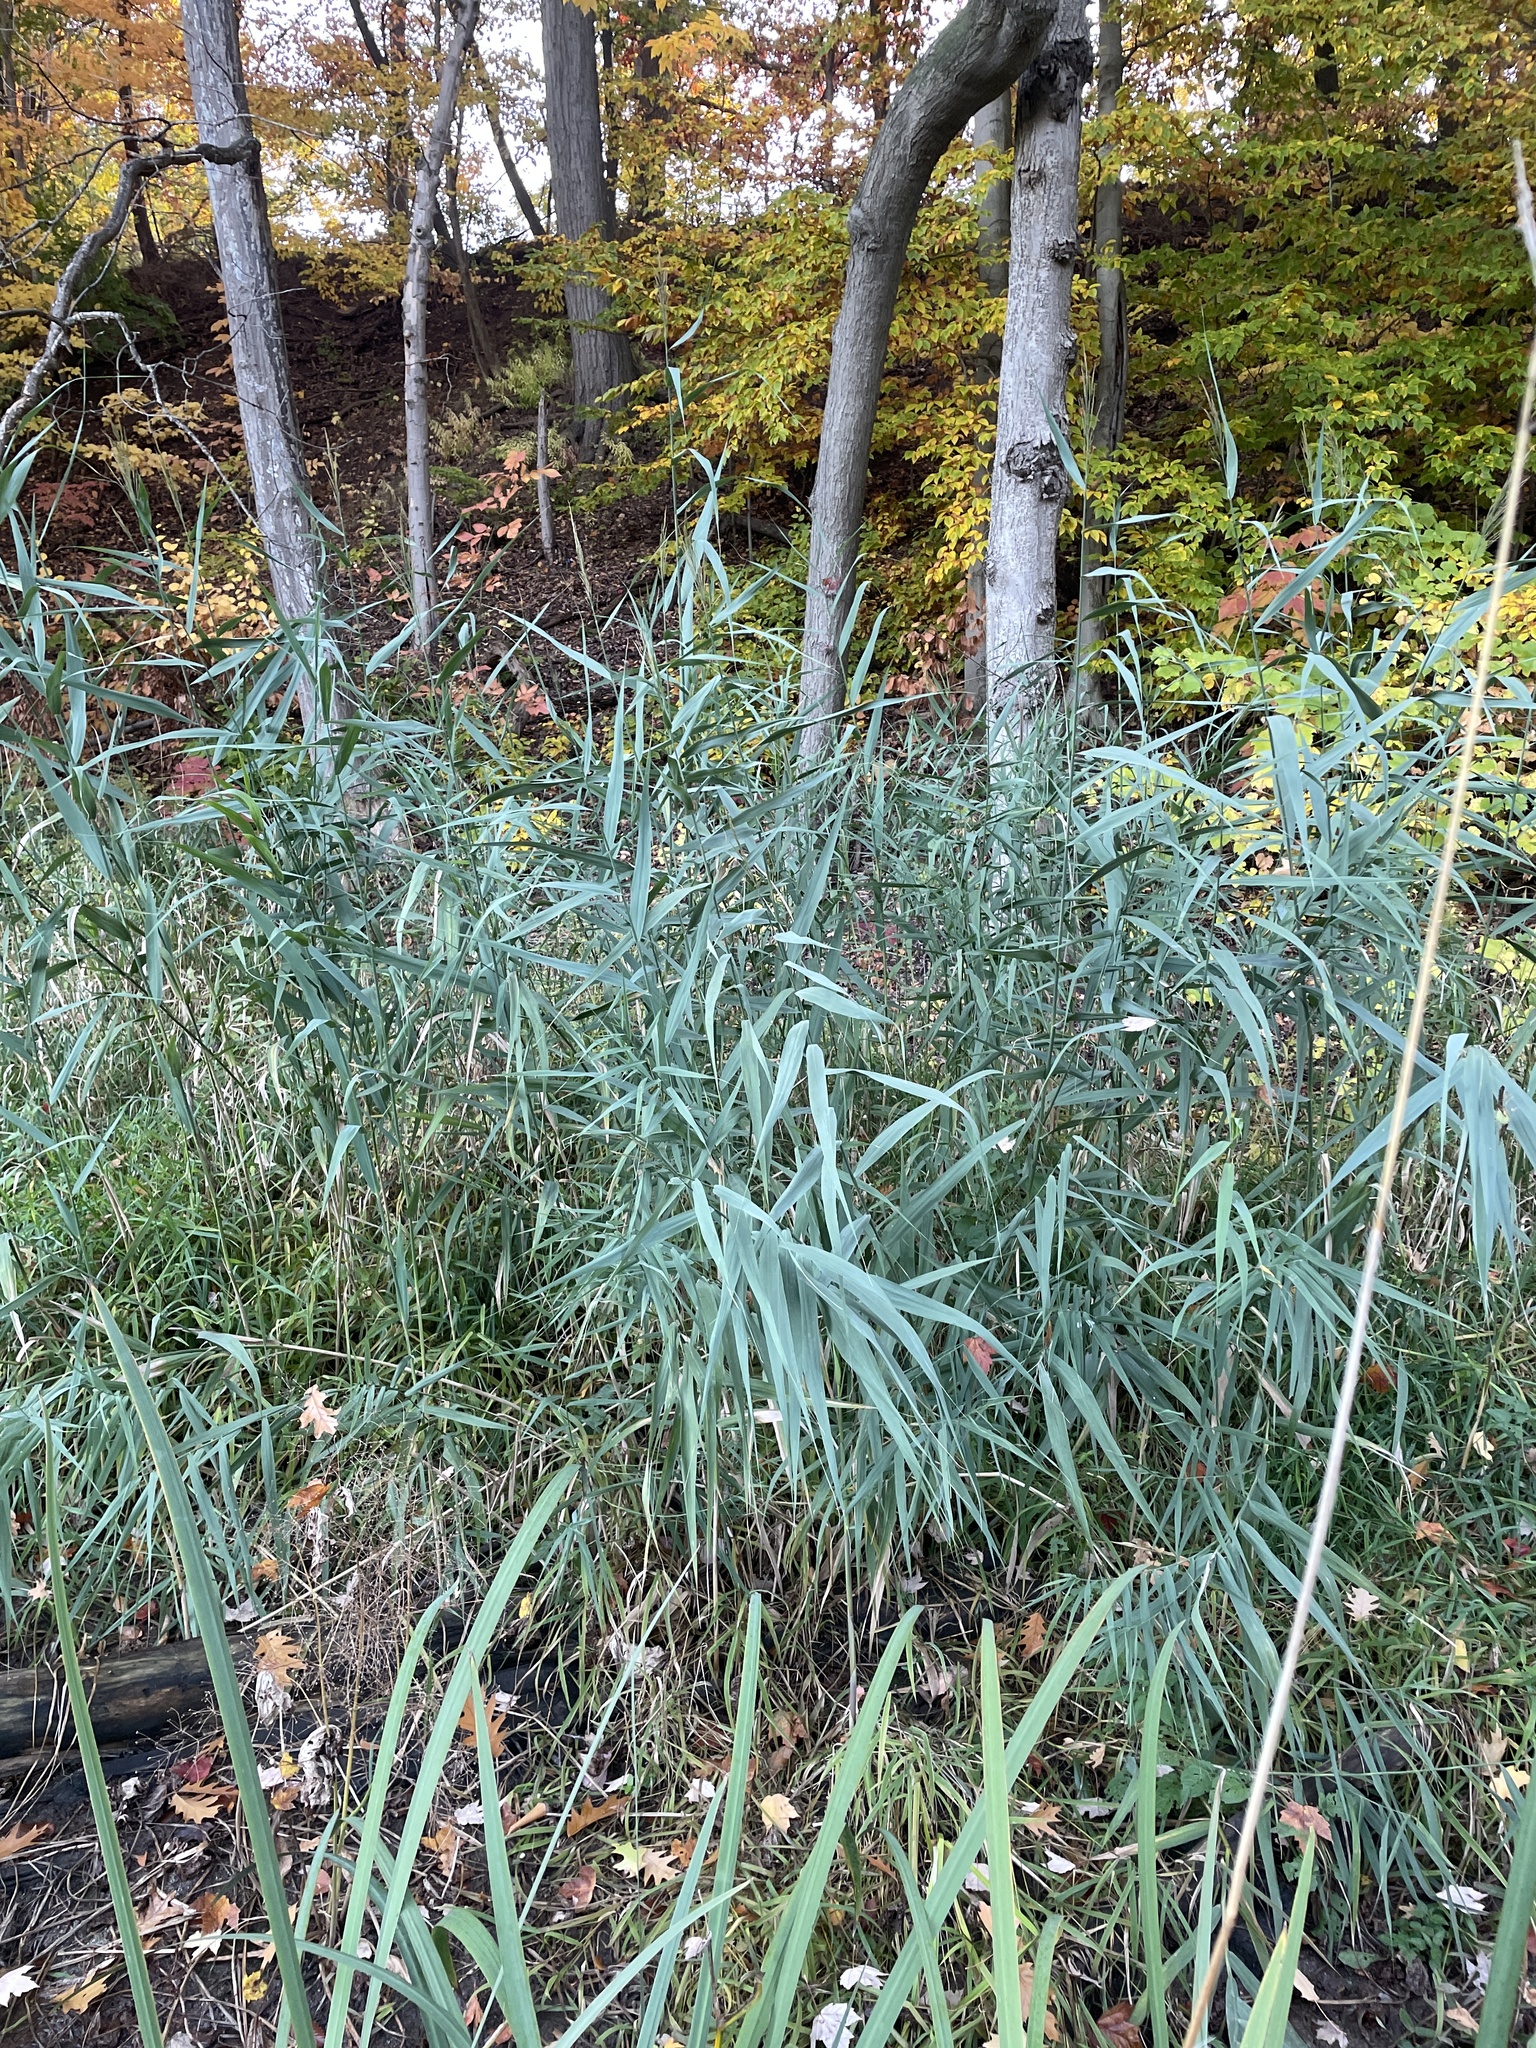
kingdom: Plantae
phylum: Tracheophyta
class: Liliopsida
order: Poales
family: Poaceae
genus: Phragmites
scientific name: Phragmites australis
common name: Common reed
